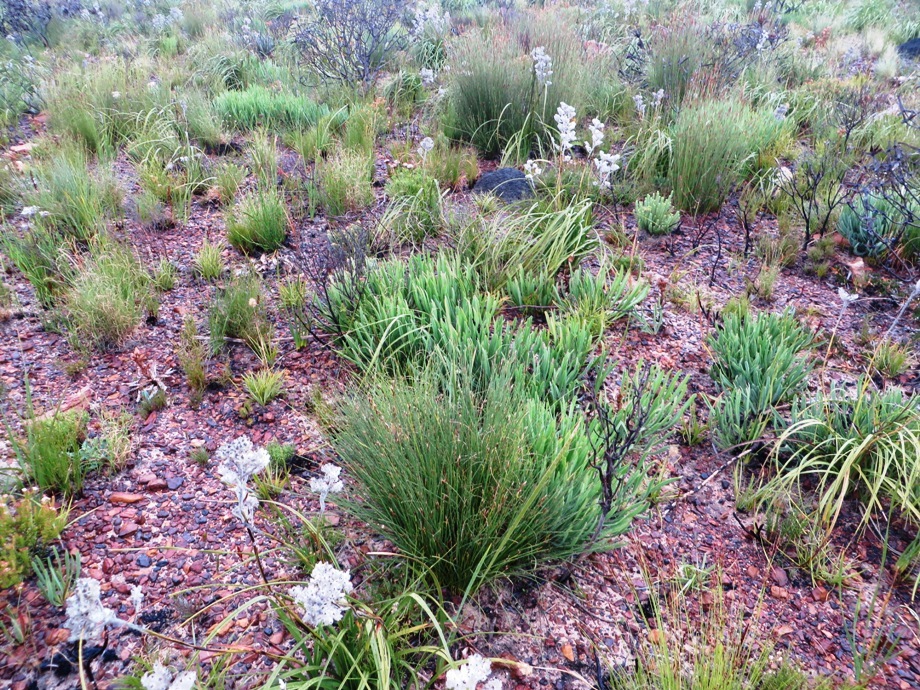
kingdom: Plantae
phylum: Tracheophyta
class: Magnoliopsida
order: Proteales
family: Proteaceae
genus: Protea
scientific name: Protea scabra
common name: Sandpaper-leaf sugarbush
